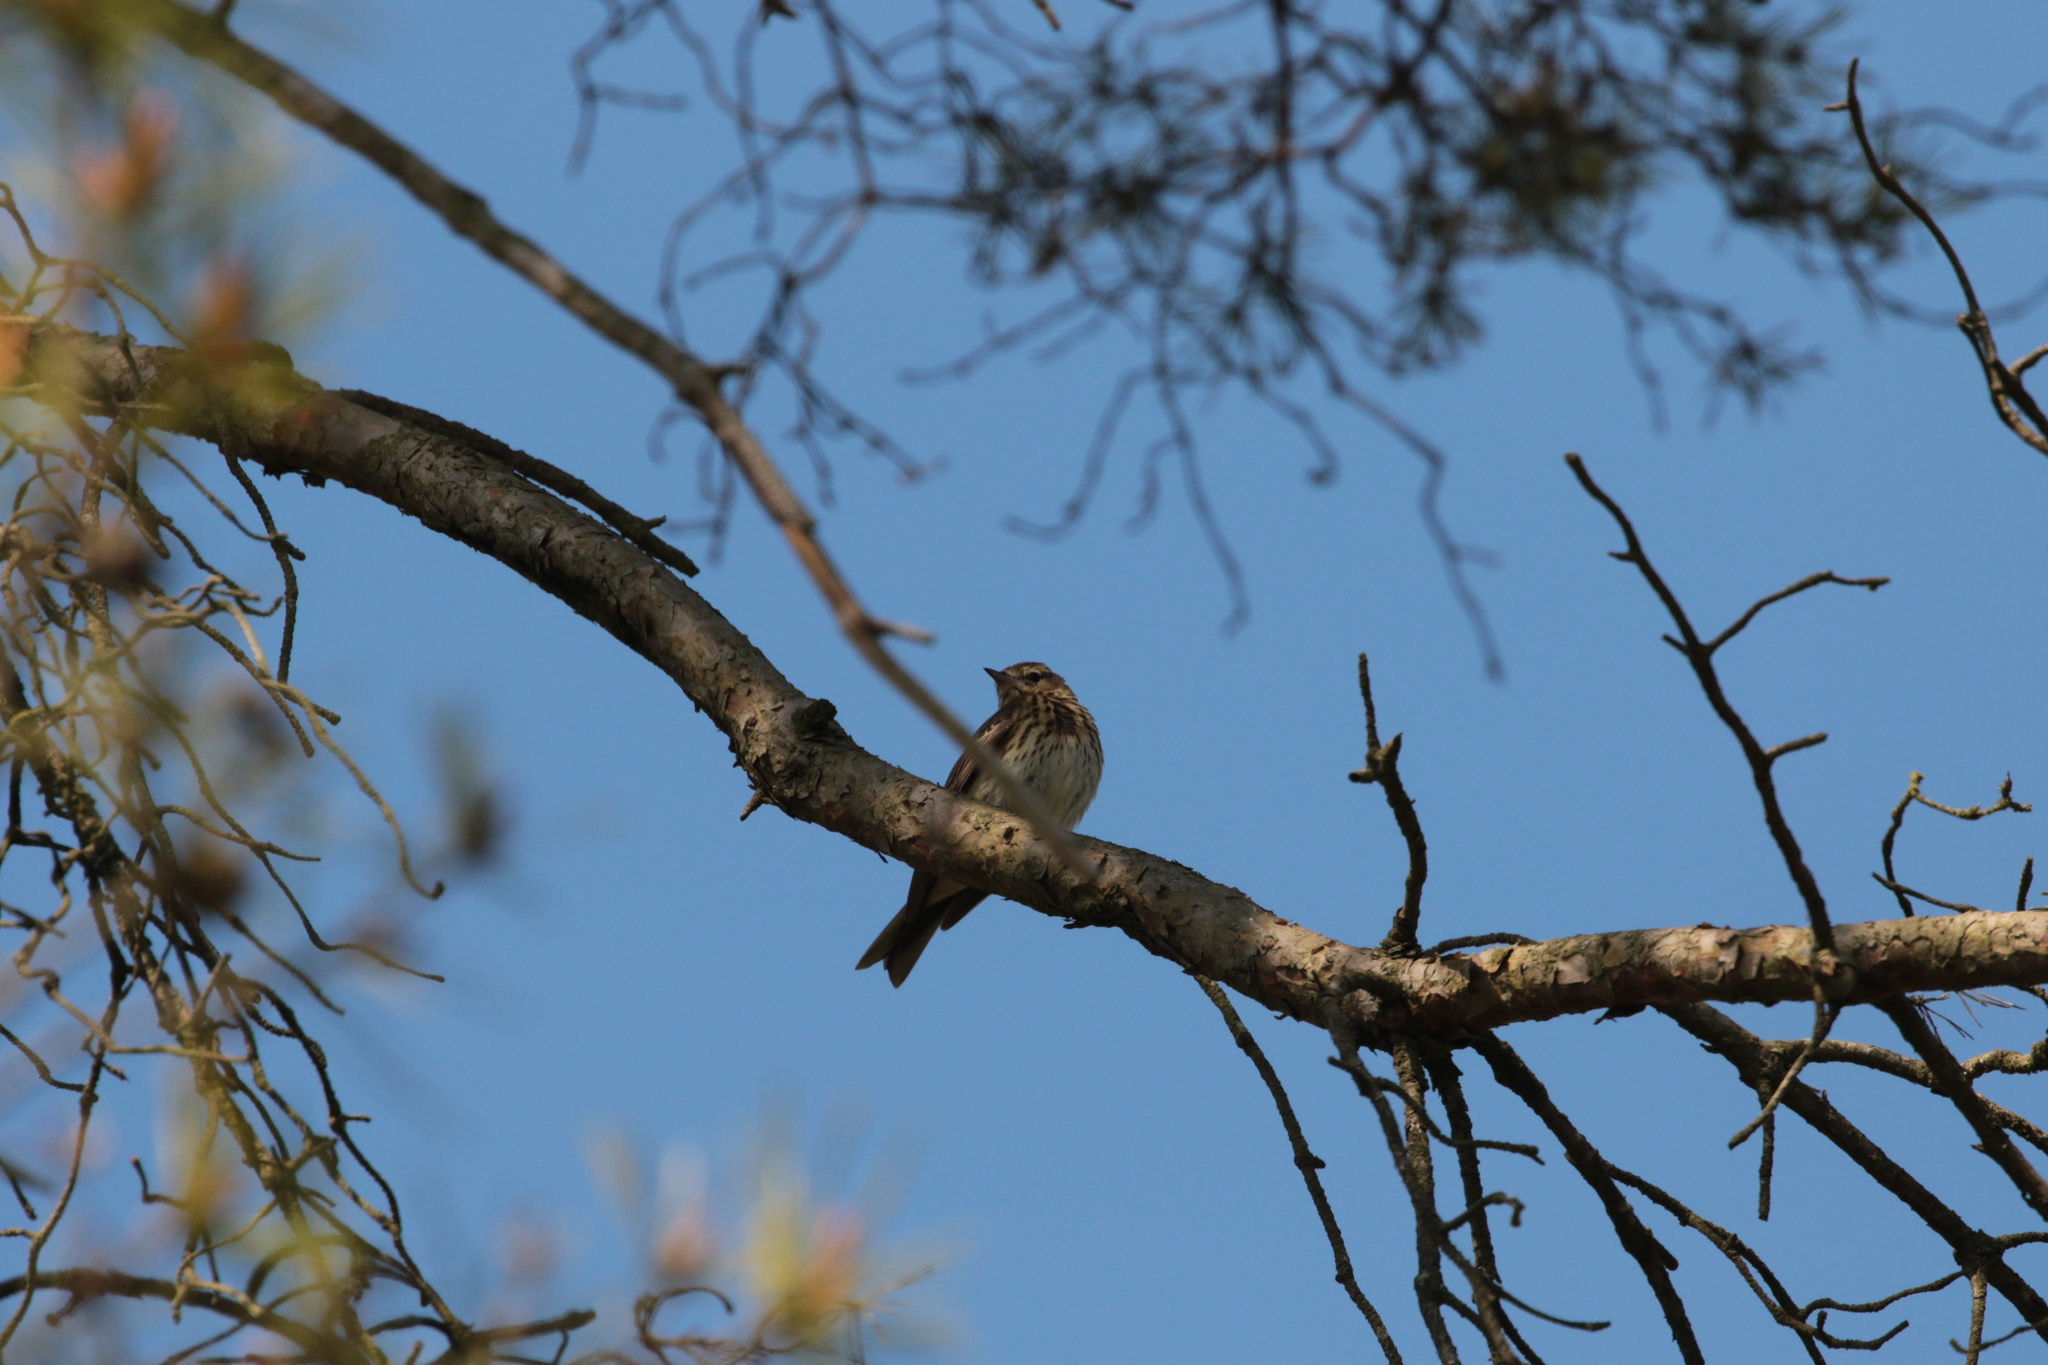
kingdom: Animalia
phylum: Chordata
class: Aves
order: Passeriformes
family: Motacillidae
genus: Anthus
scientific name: Anthus trivialis
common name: Tree pipit
